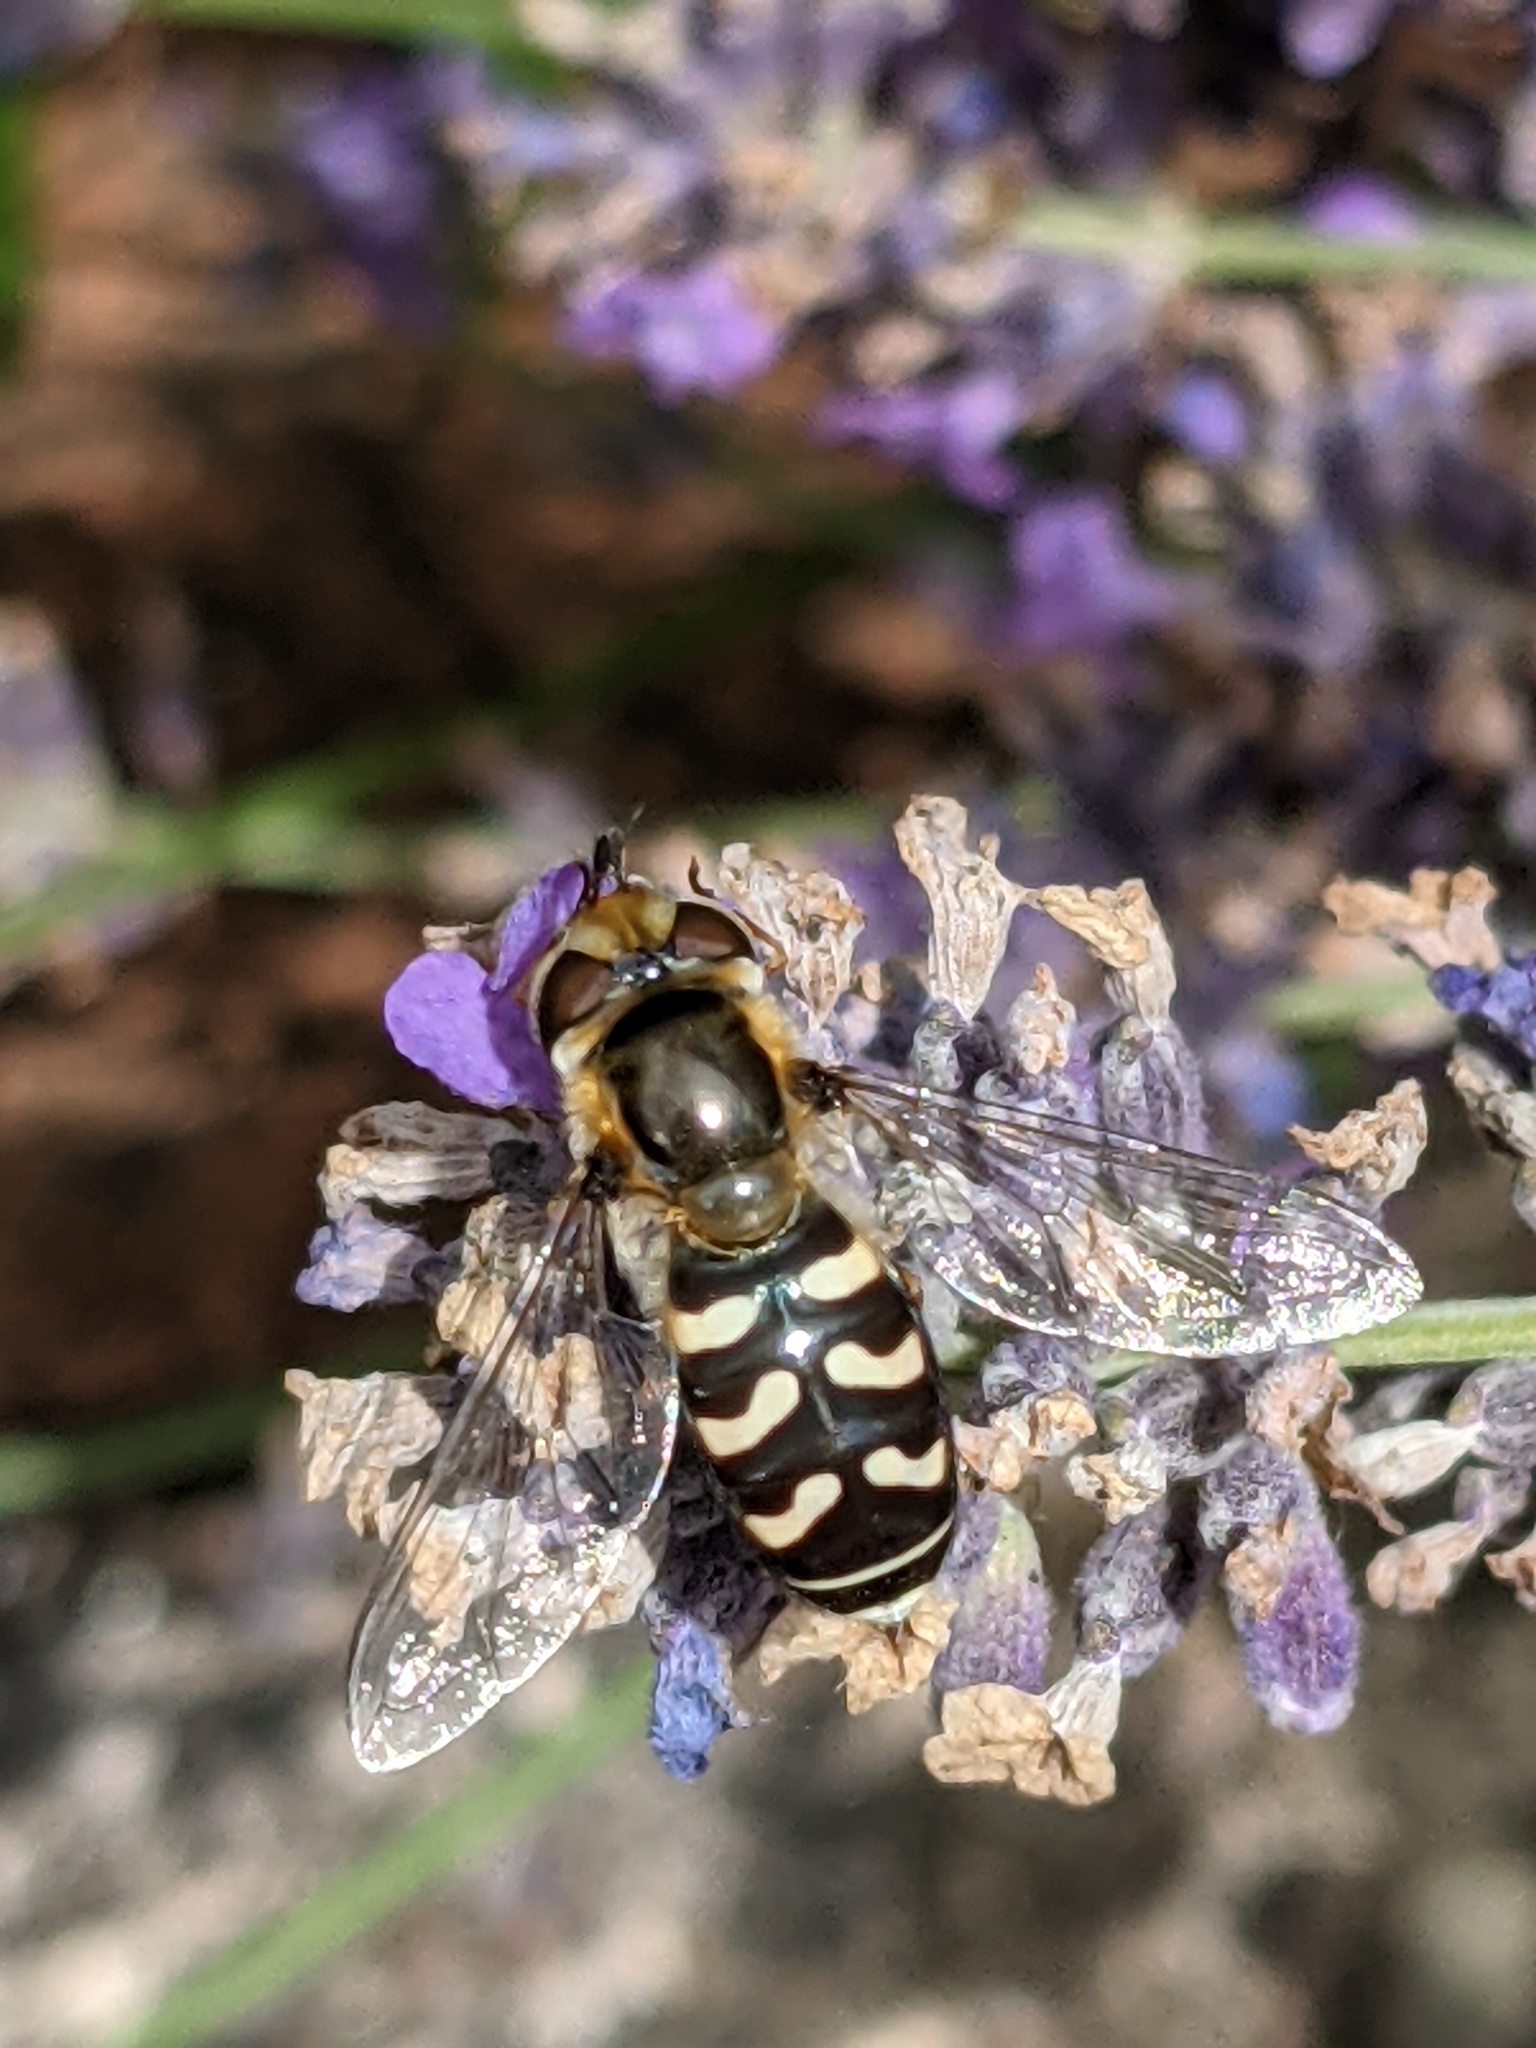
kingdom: Animalia
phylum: Arthropoda
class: Insecta
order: Diptera
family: Syrphidae
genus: Scaeva
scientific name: Scaeva pyrastri
